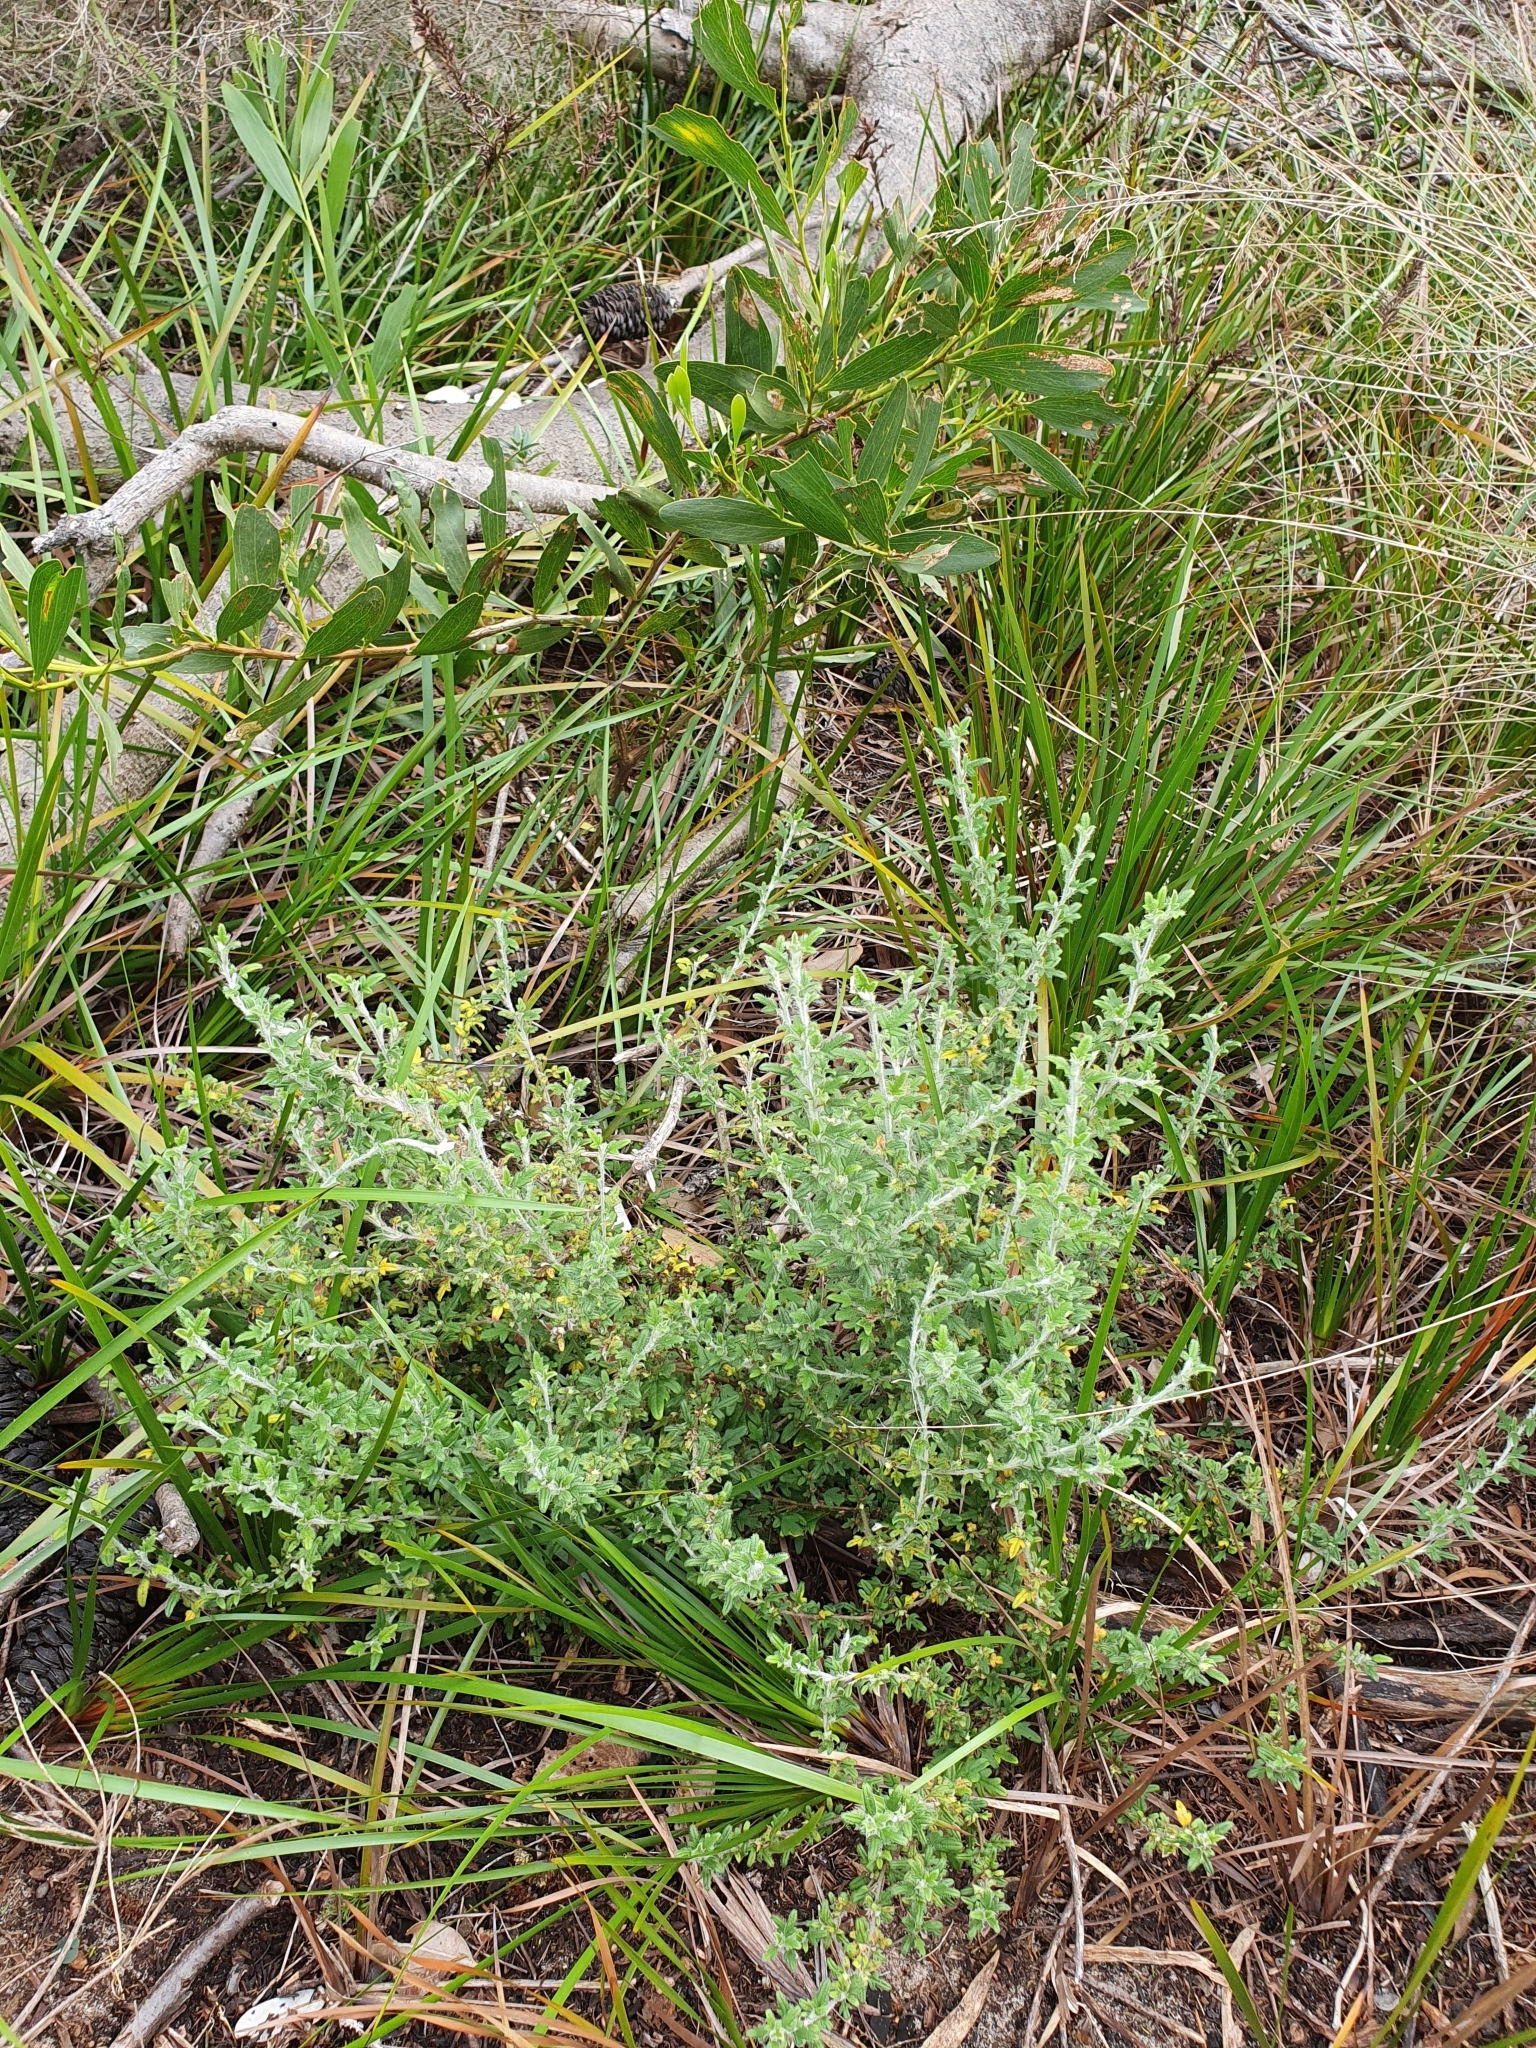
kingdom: Plantae
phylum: Tracheophyta
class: Magnoliopsida
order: Apiales
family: Apiaceae
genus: Xanthosia
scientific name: Xanthosia pilosa
